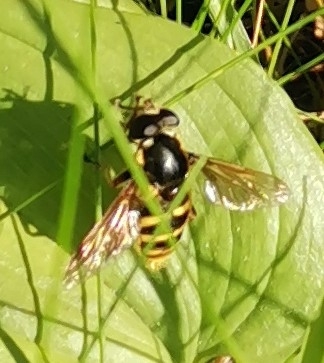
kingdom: Animalia
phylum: Arthropoda
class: Insecta
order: Diptera
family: Syrphidae
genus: Sericomyia
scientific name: Sericomyia silentis
